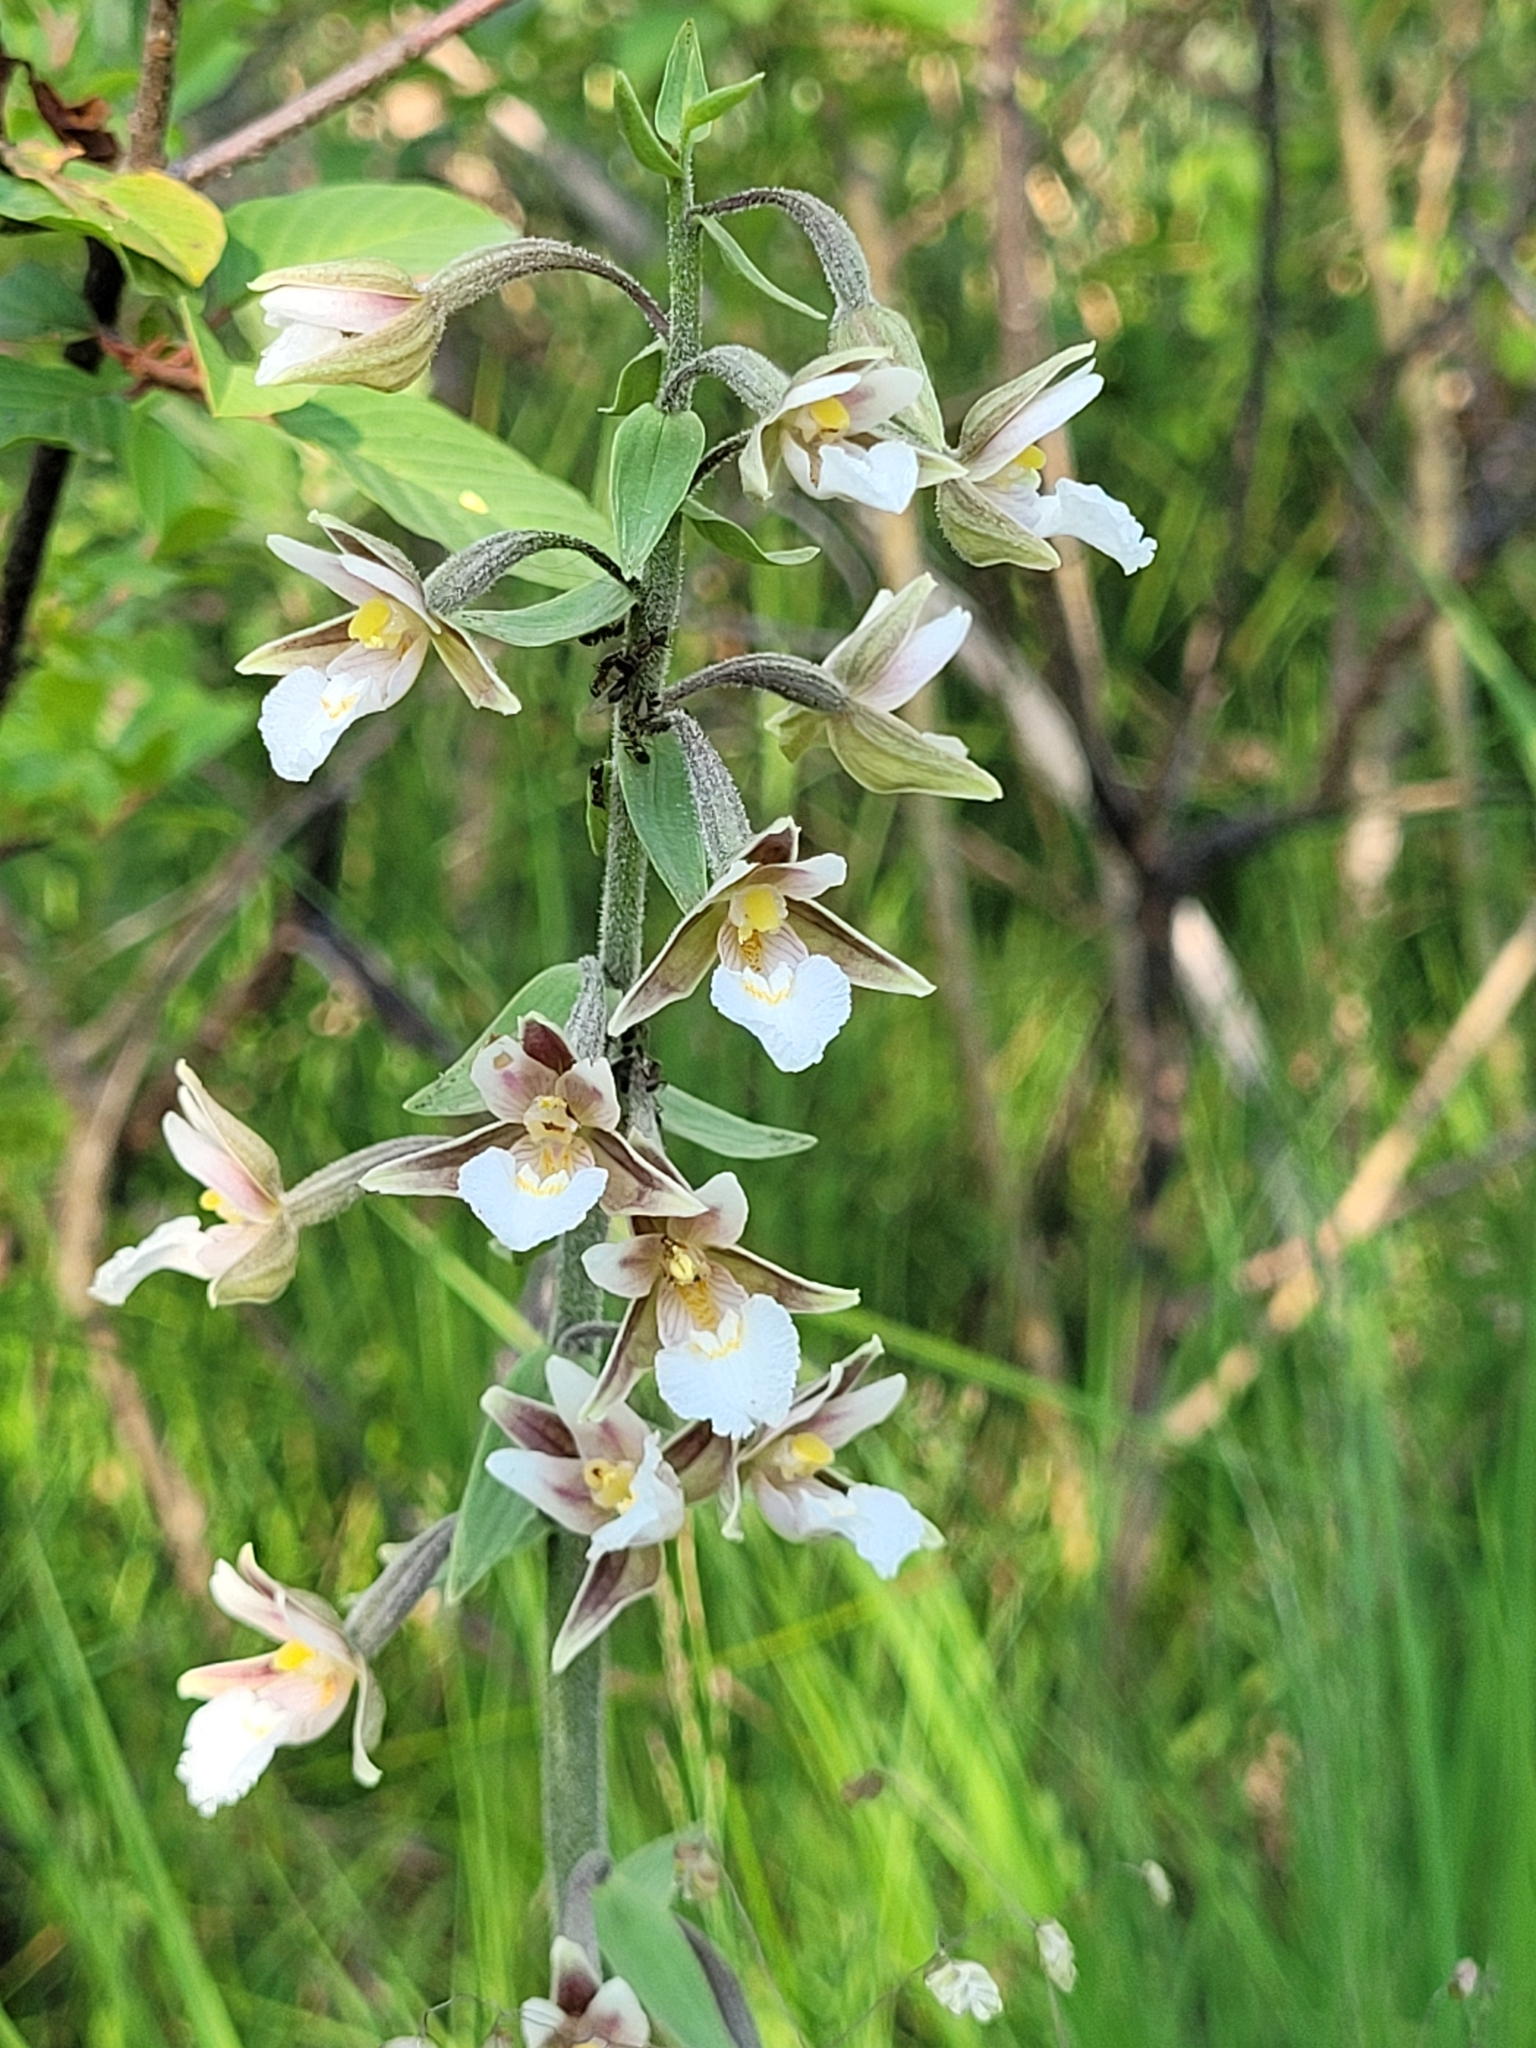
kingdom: Plantae
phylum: Tracheophyta
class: Liliopsida
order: Asparagales
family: Orchidaceae
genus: Epipactis
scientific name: Epipactis palustris
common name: Marsh helleborine
